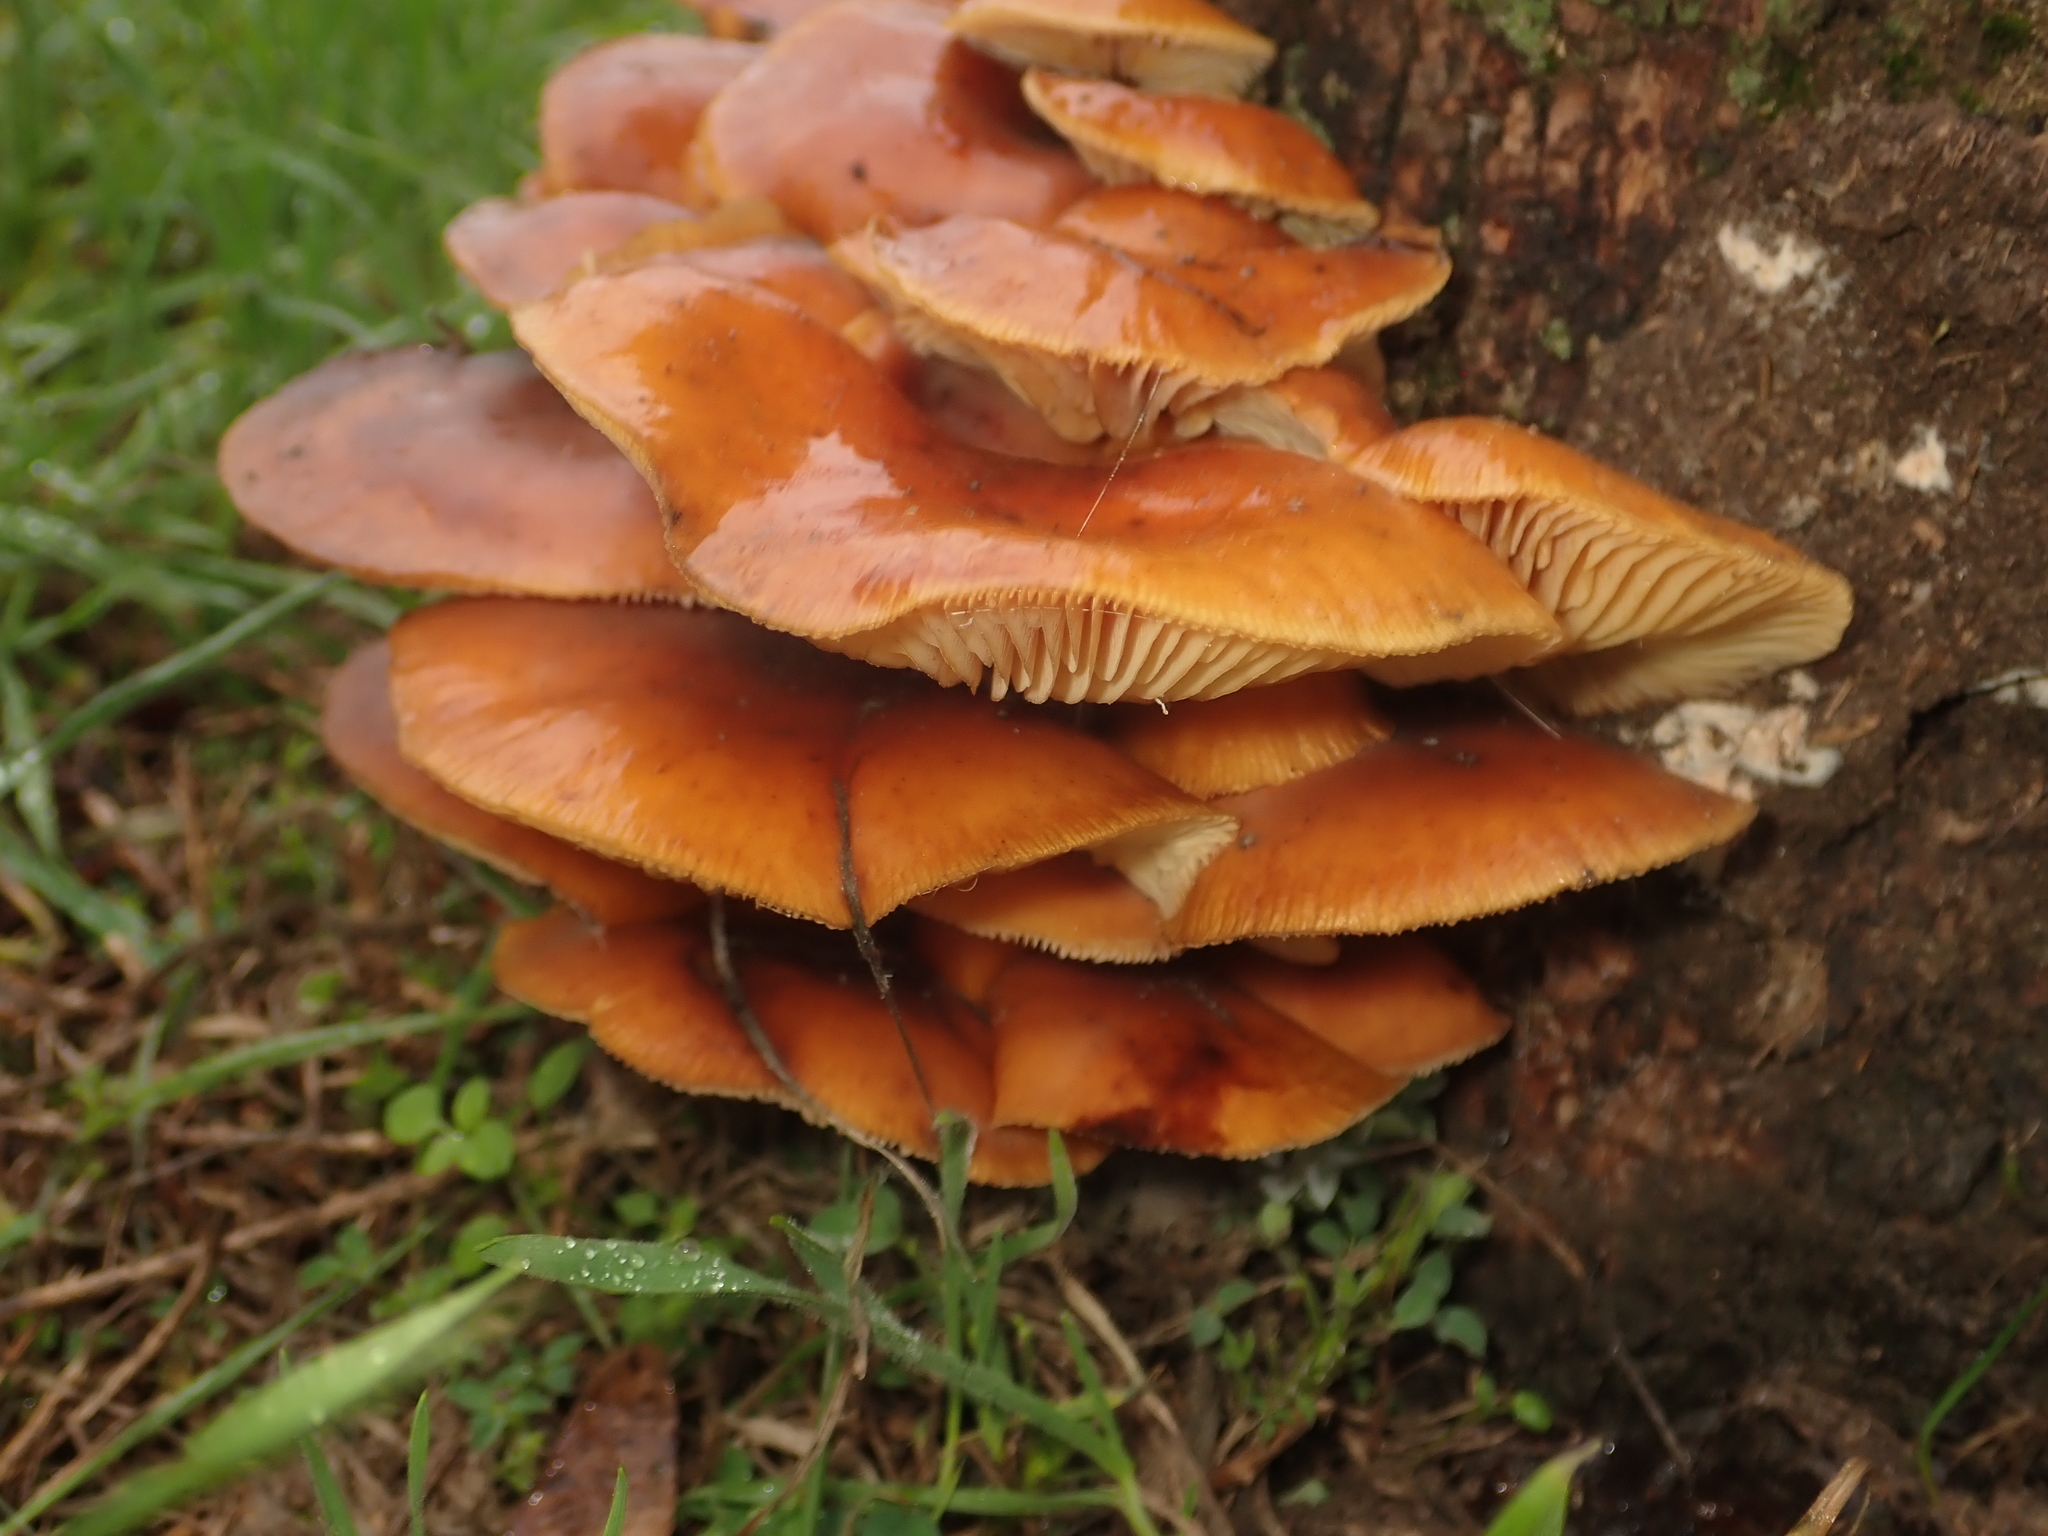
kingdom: Fungi
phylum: Basidiomycota
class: Agaricomycetes
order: Agaricales
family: Physalacriaceae
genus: Flammulina
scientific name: Flammulina
